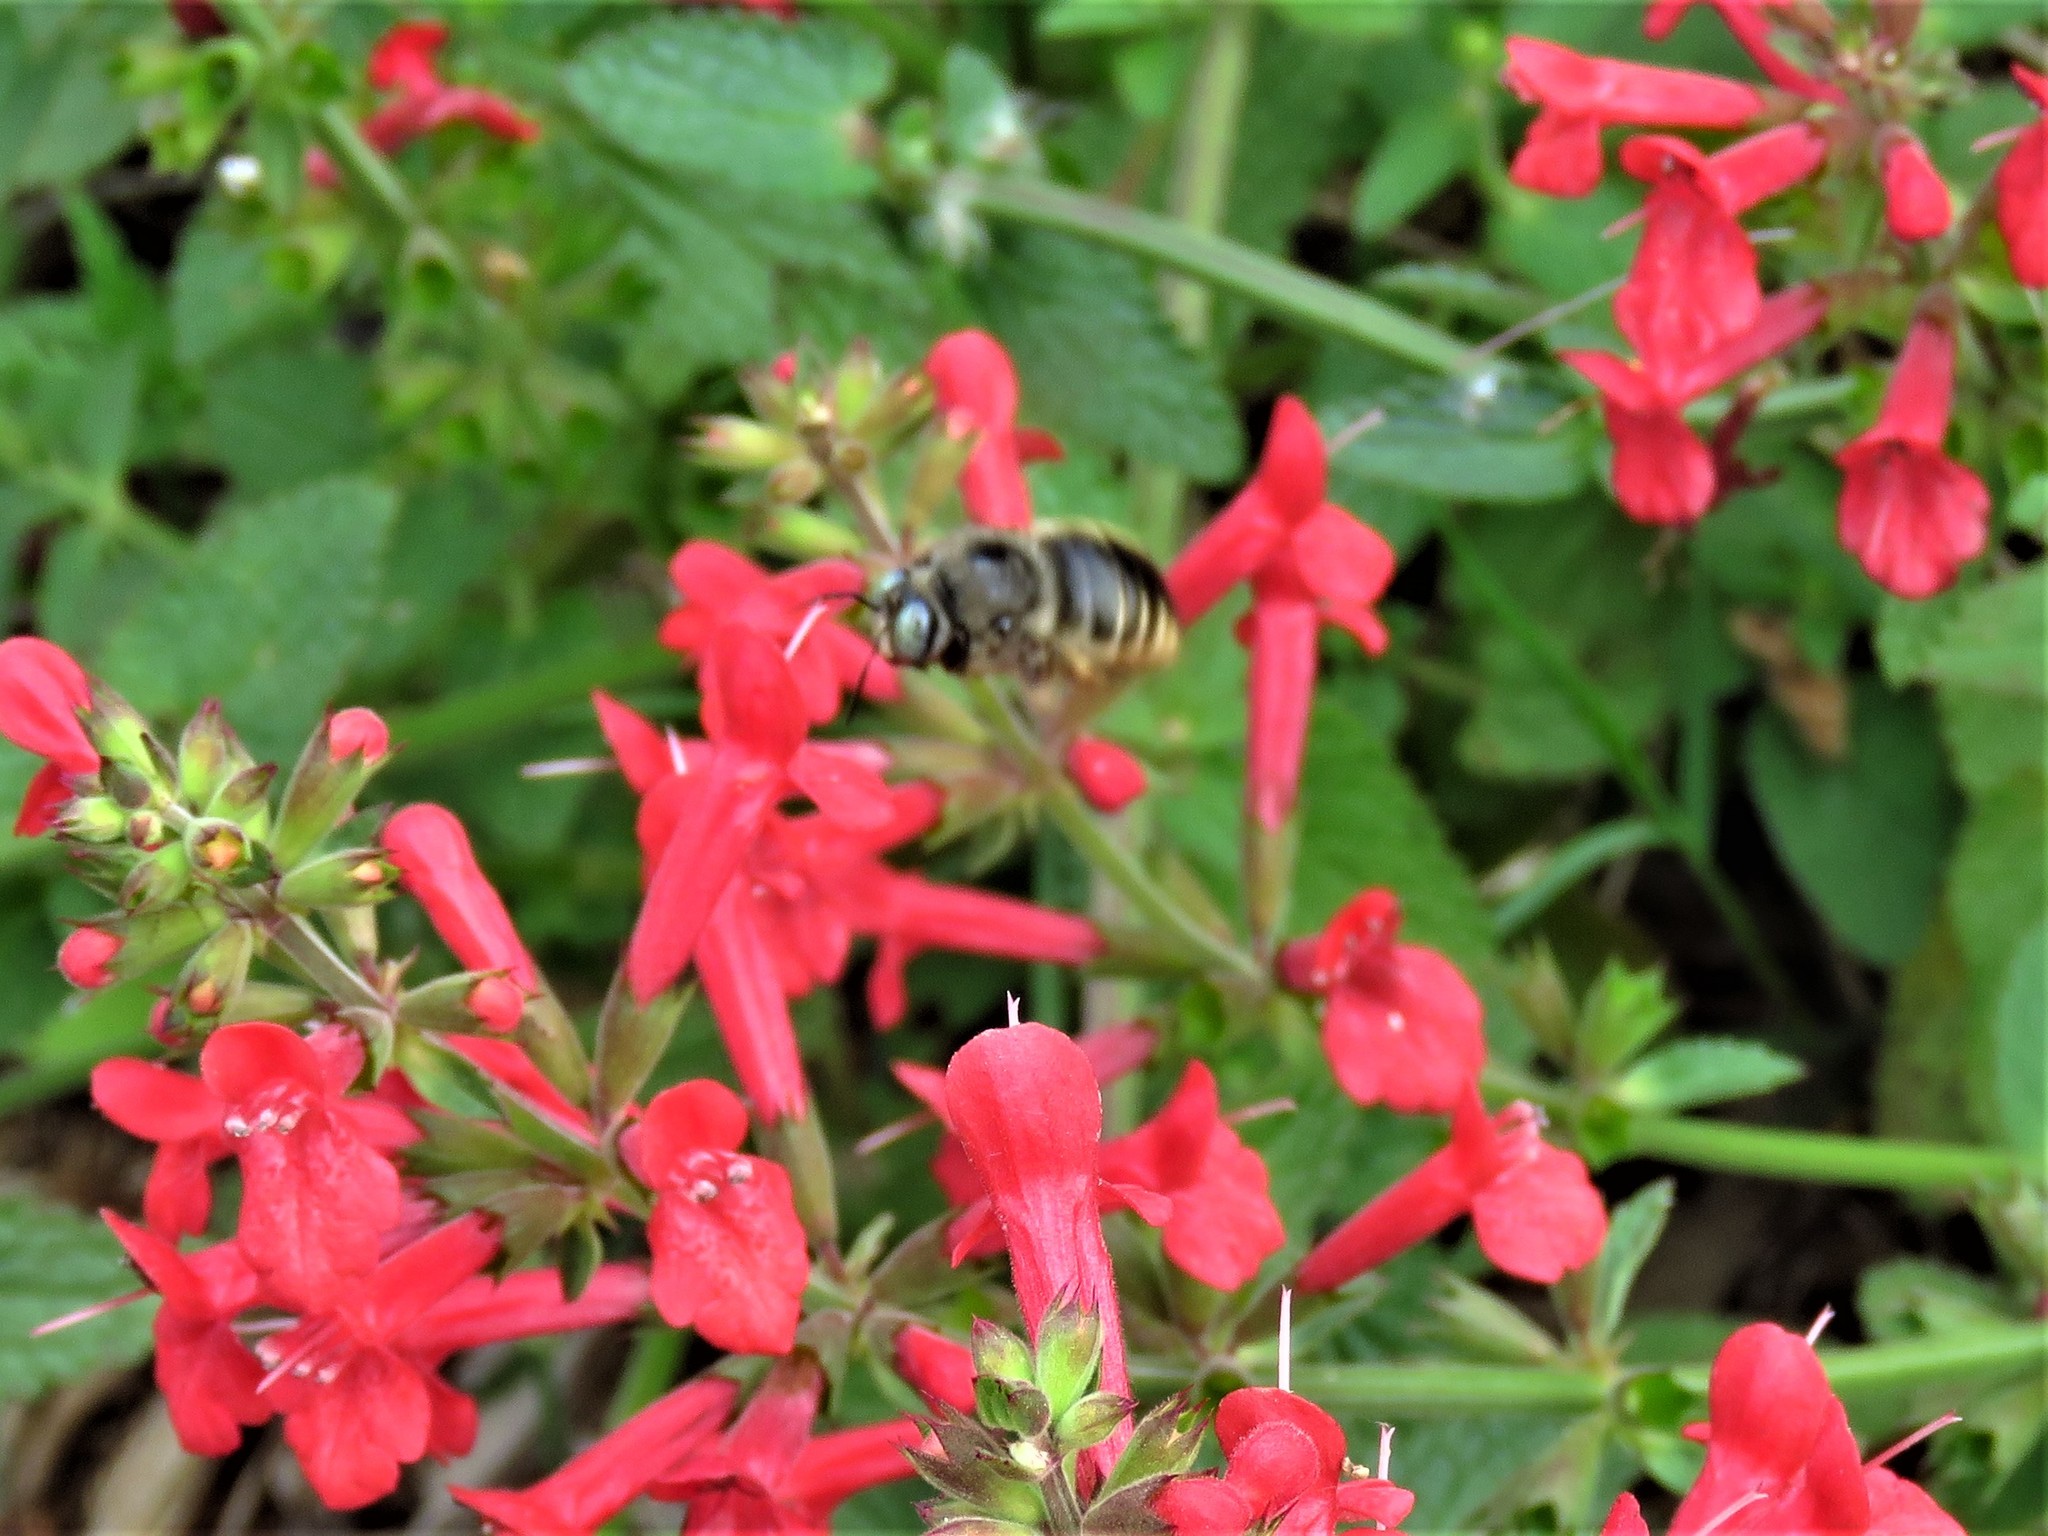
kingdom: Animalia
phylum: Arthropoda
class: Insecta
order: Hymenoptera
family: Apidae
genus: Xylocopa
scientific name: Xylocopa tabaniformis
